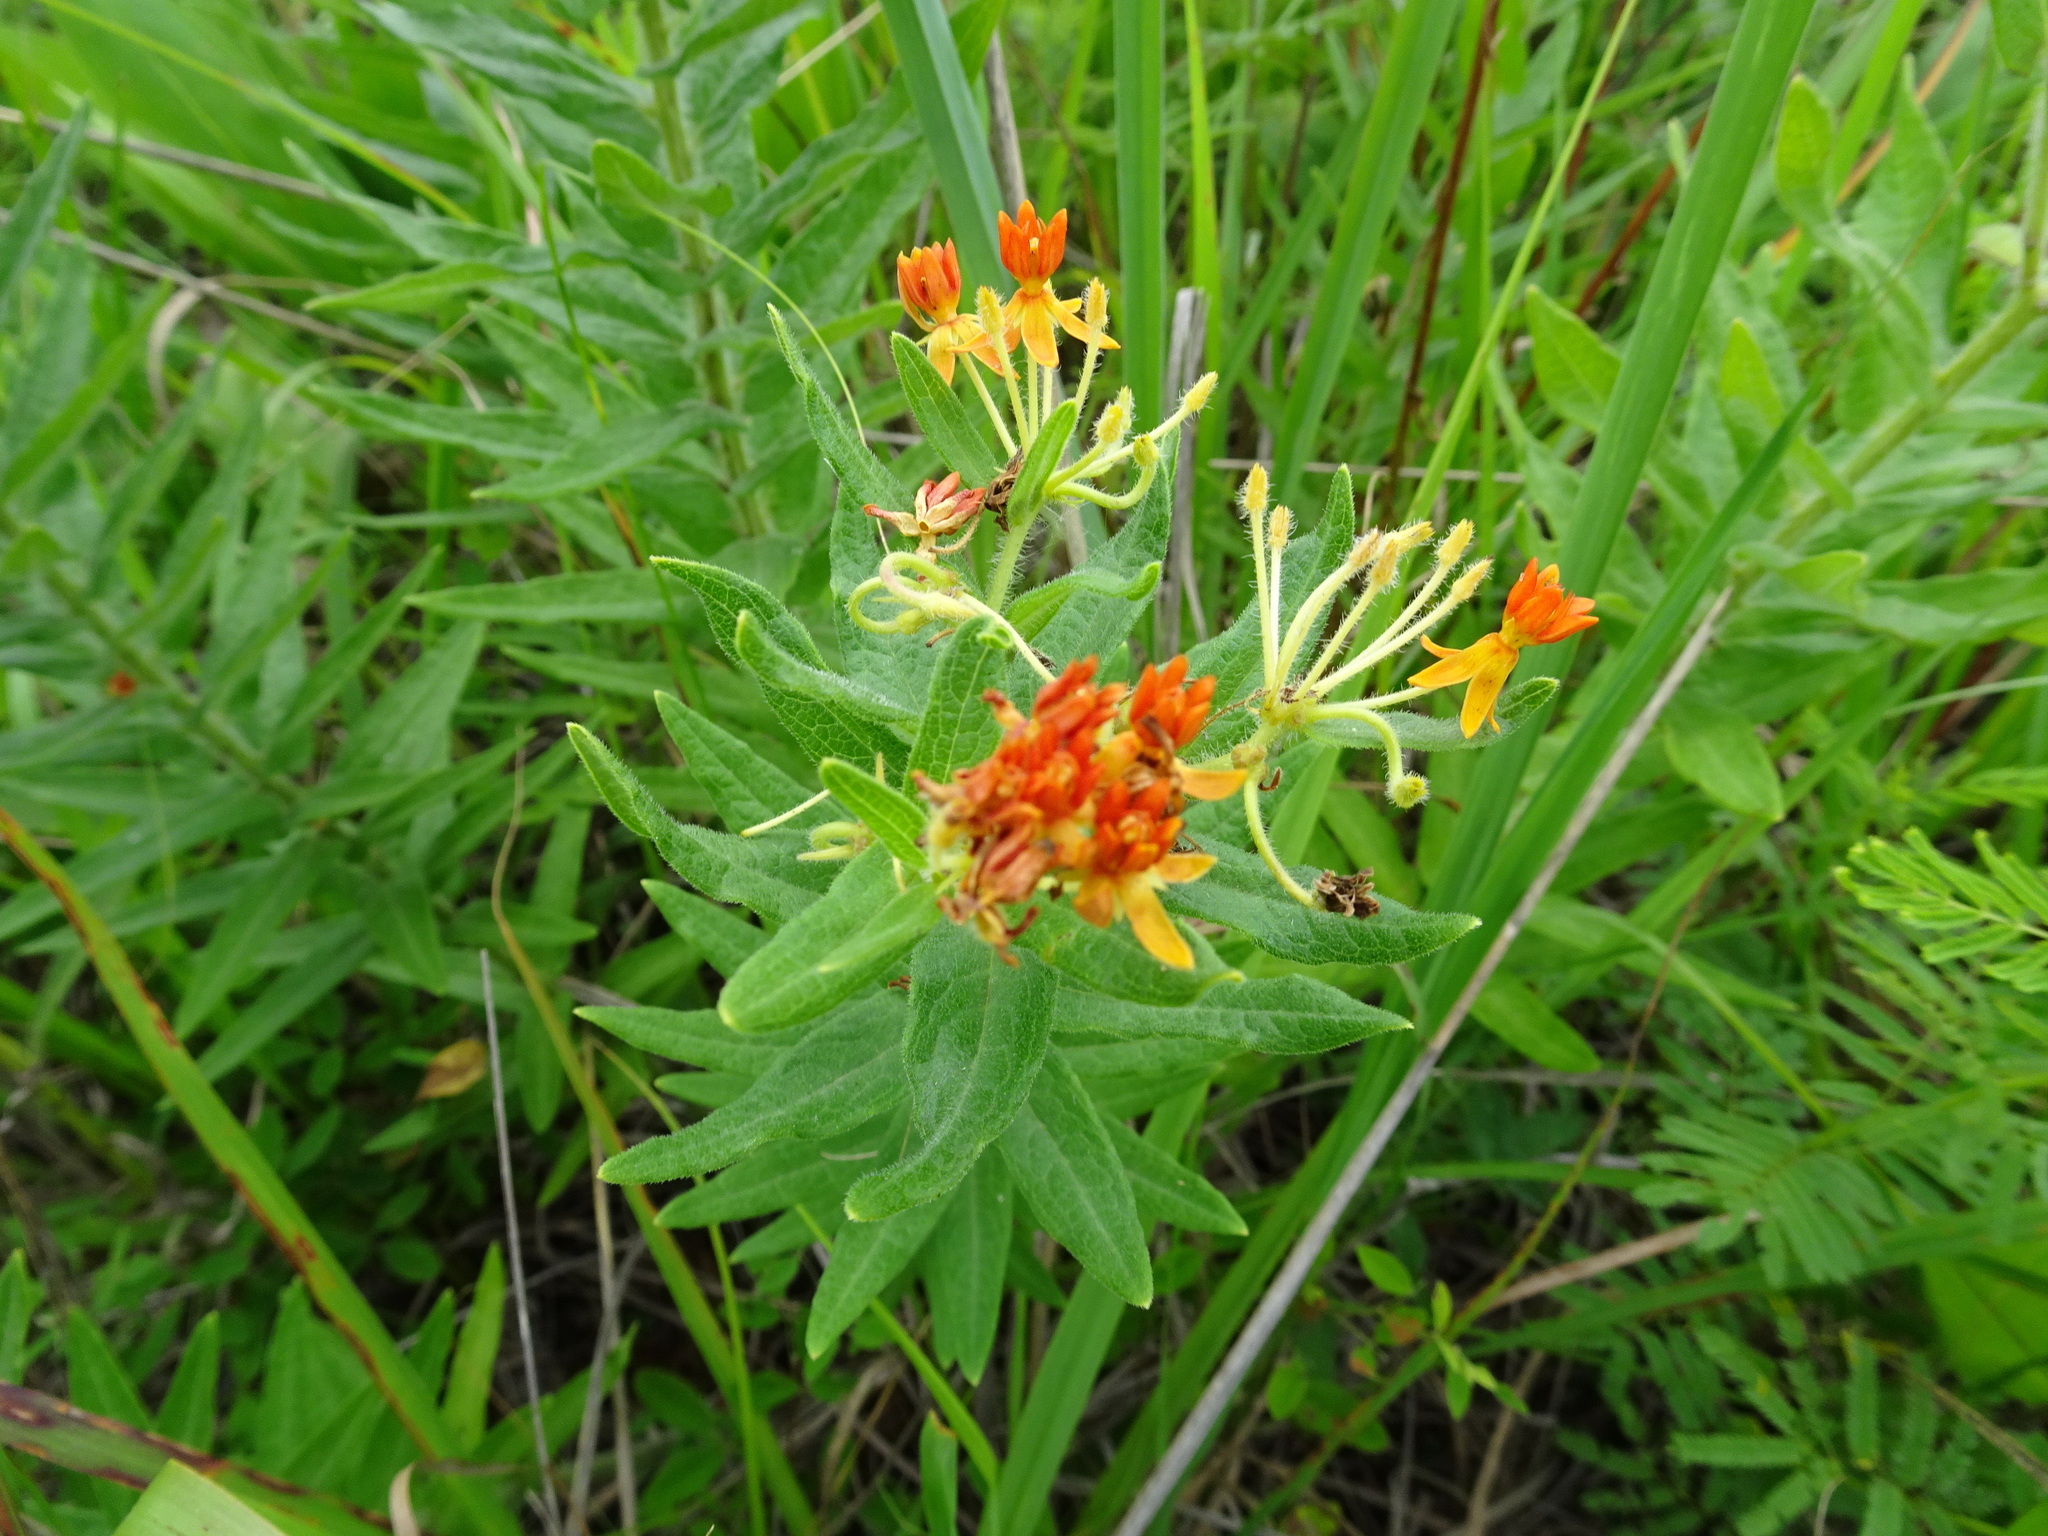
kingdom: Plantae
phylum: Tracheophyta
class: Magnoliopsida
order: Gentianales
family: Apocynaceae
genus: Asclepias
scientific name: Asclepias tuberosa
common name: Butterfly milkweed
